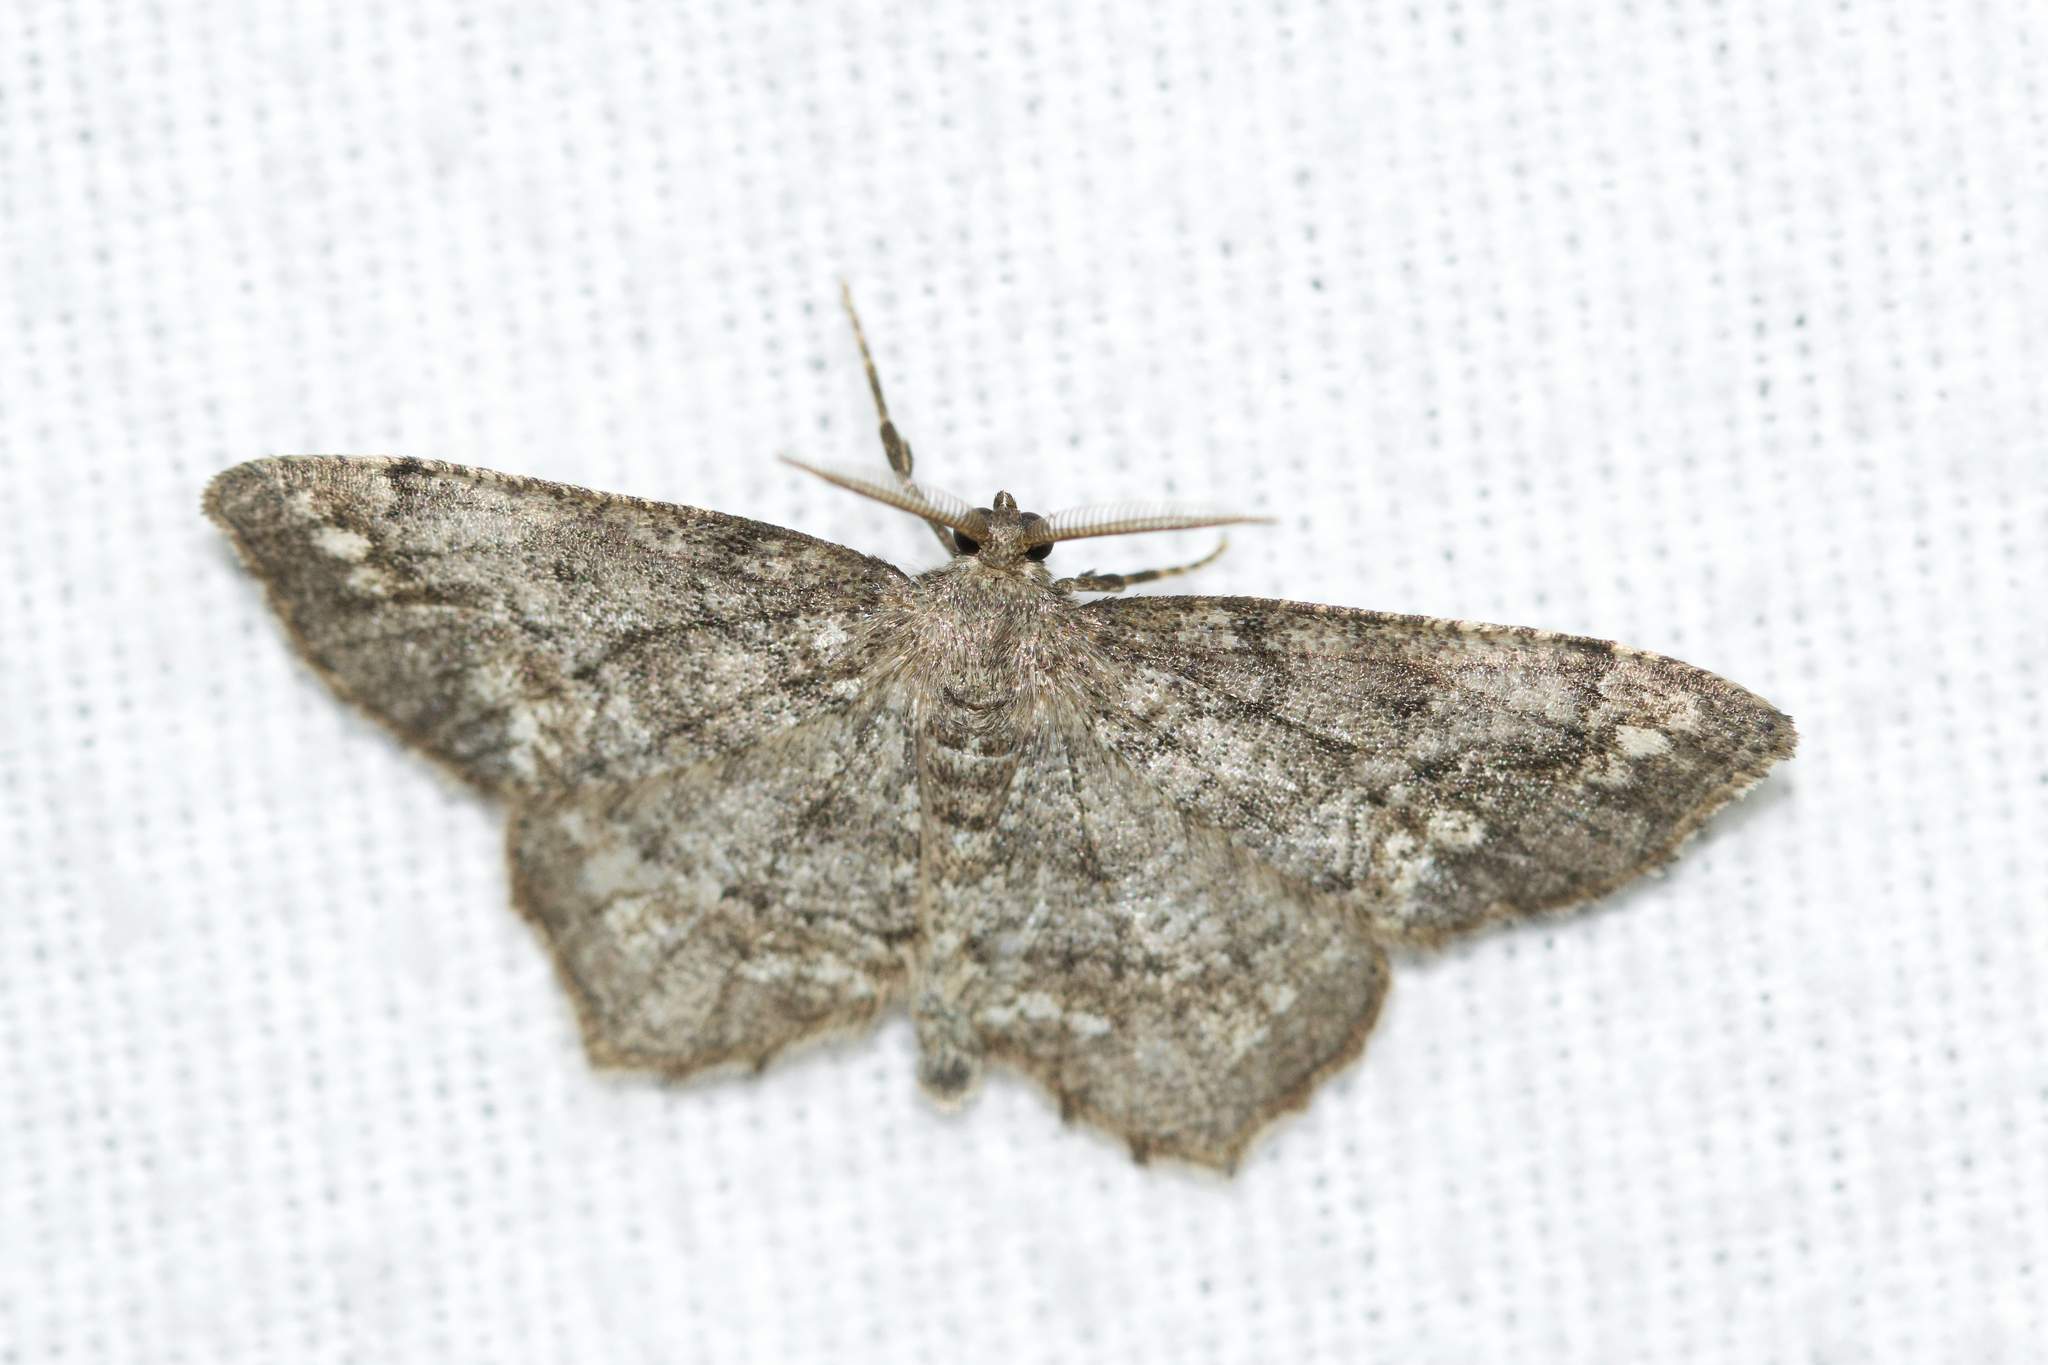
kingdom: Animalia
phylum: Arthropoda
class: Insecta
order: Lepidoptera
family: Geometridae
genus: Hypagyrtis
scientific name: Hypagyrtis unipunctata
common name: One-spotted variant
